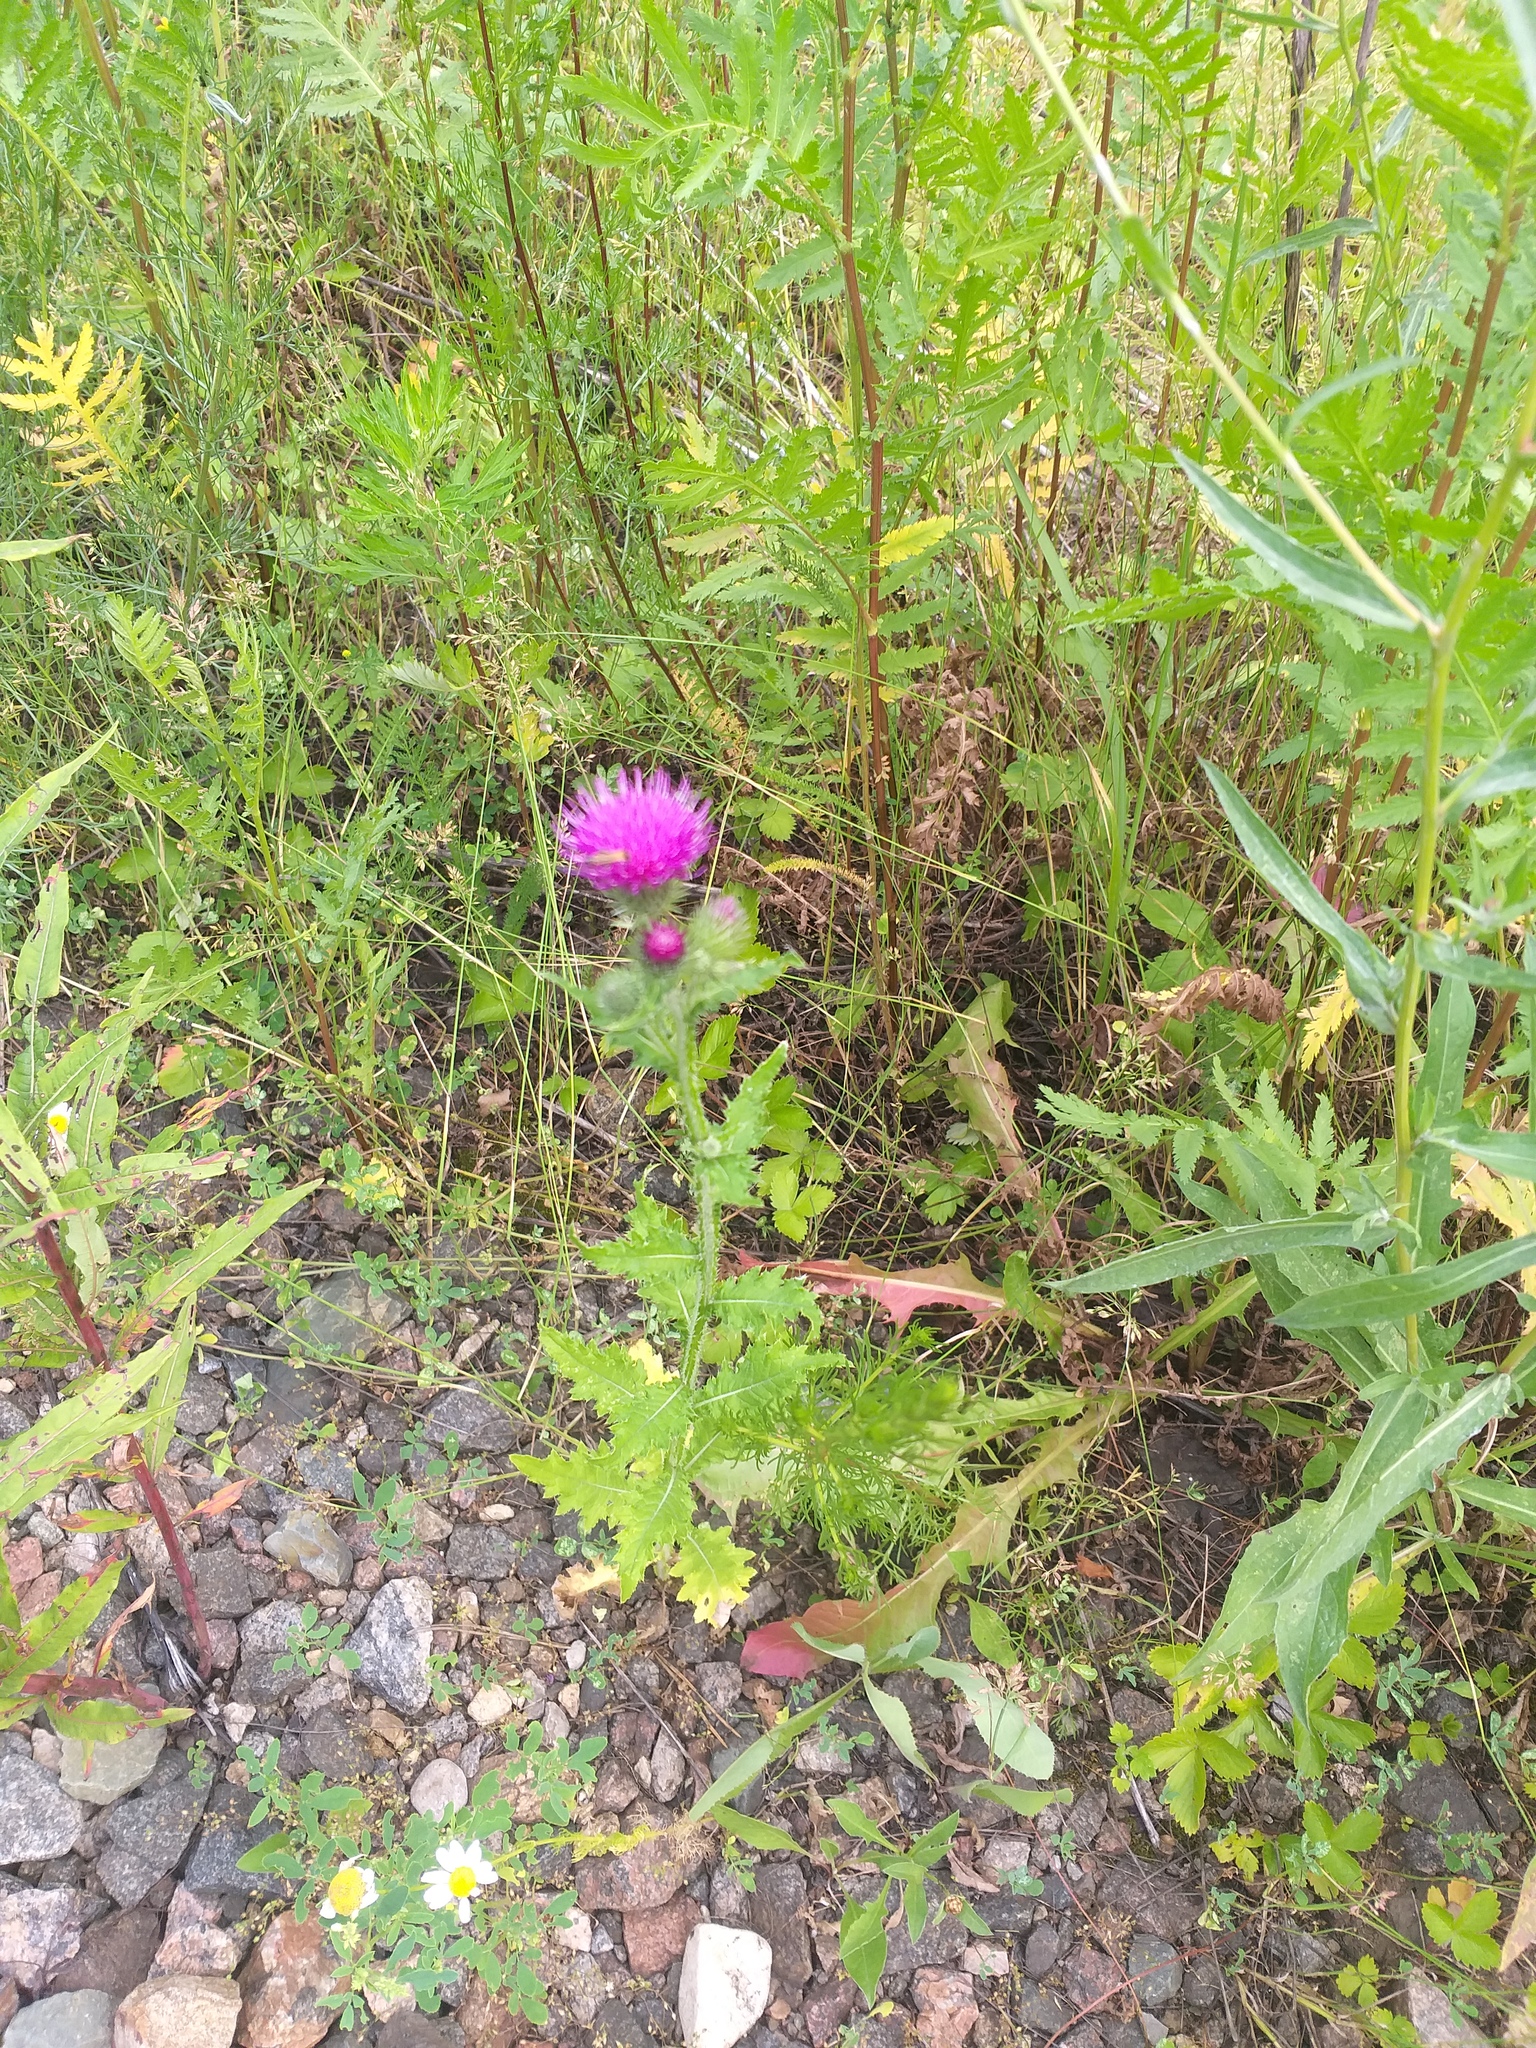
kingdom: Plantae
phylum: Tracheophyta
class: Magnoliopsida
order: Asterales
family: Asteraceae
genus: Carduus
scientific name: Carduus crispus
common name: Welted thistle
